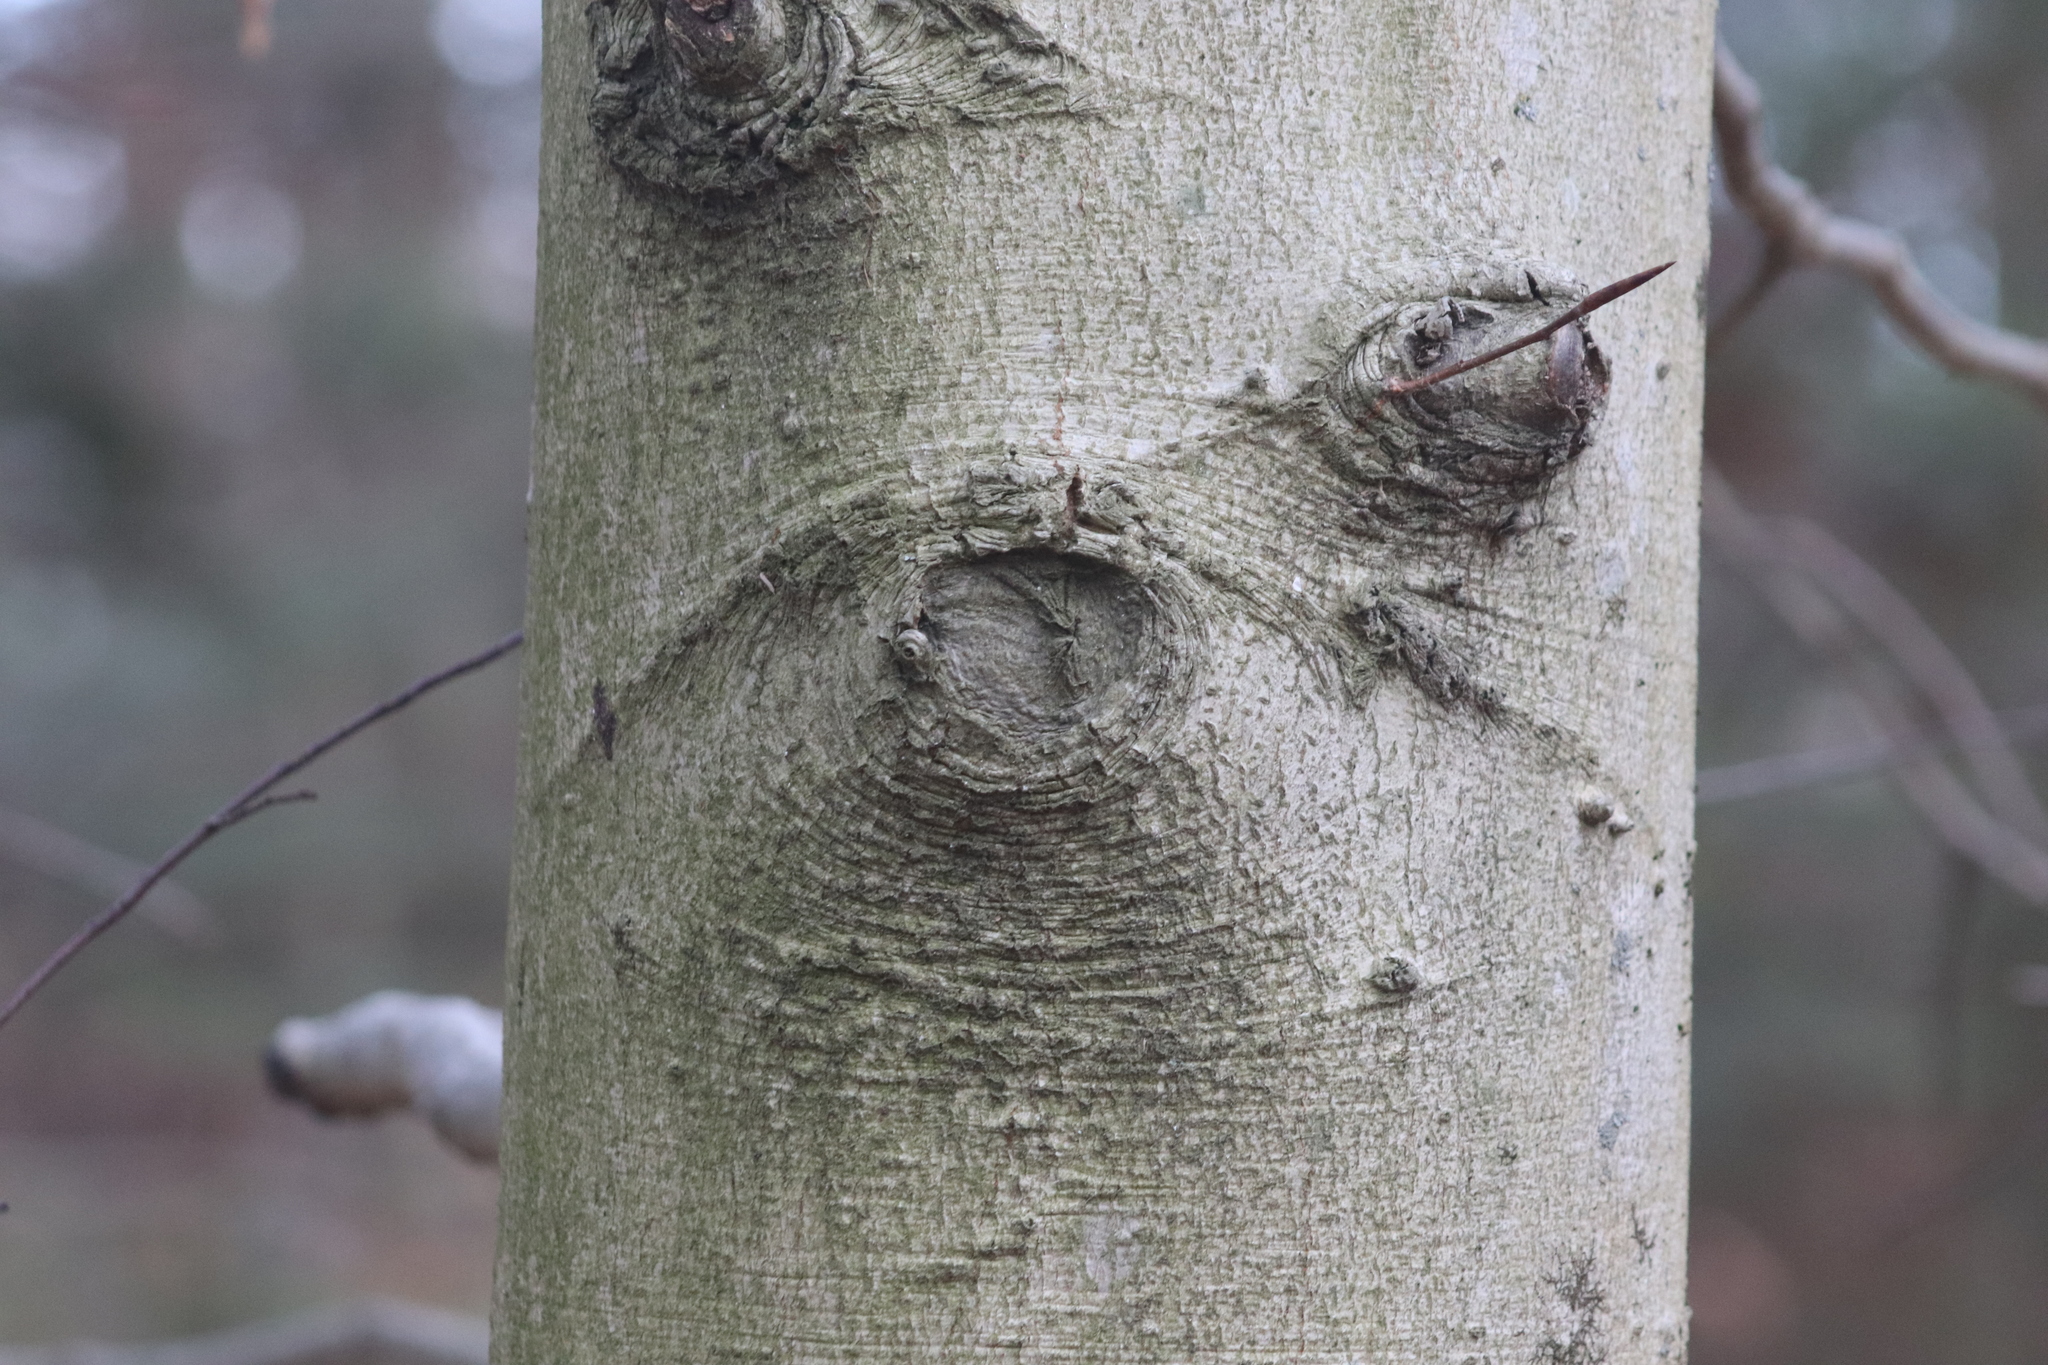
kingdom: Plantae
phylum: Tracheophyta
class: Magnoliopsida
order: Fagales
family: Fagaceae
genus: Fagus
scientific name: Fagus grandifolia
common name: American beech
